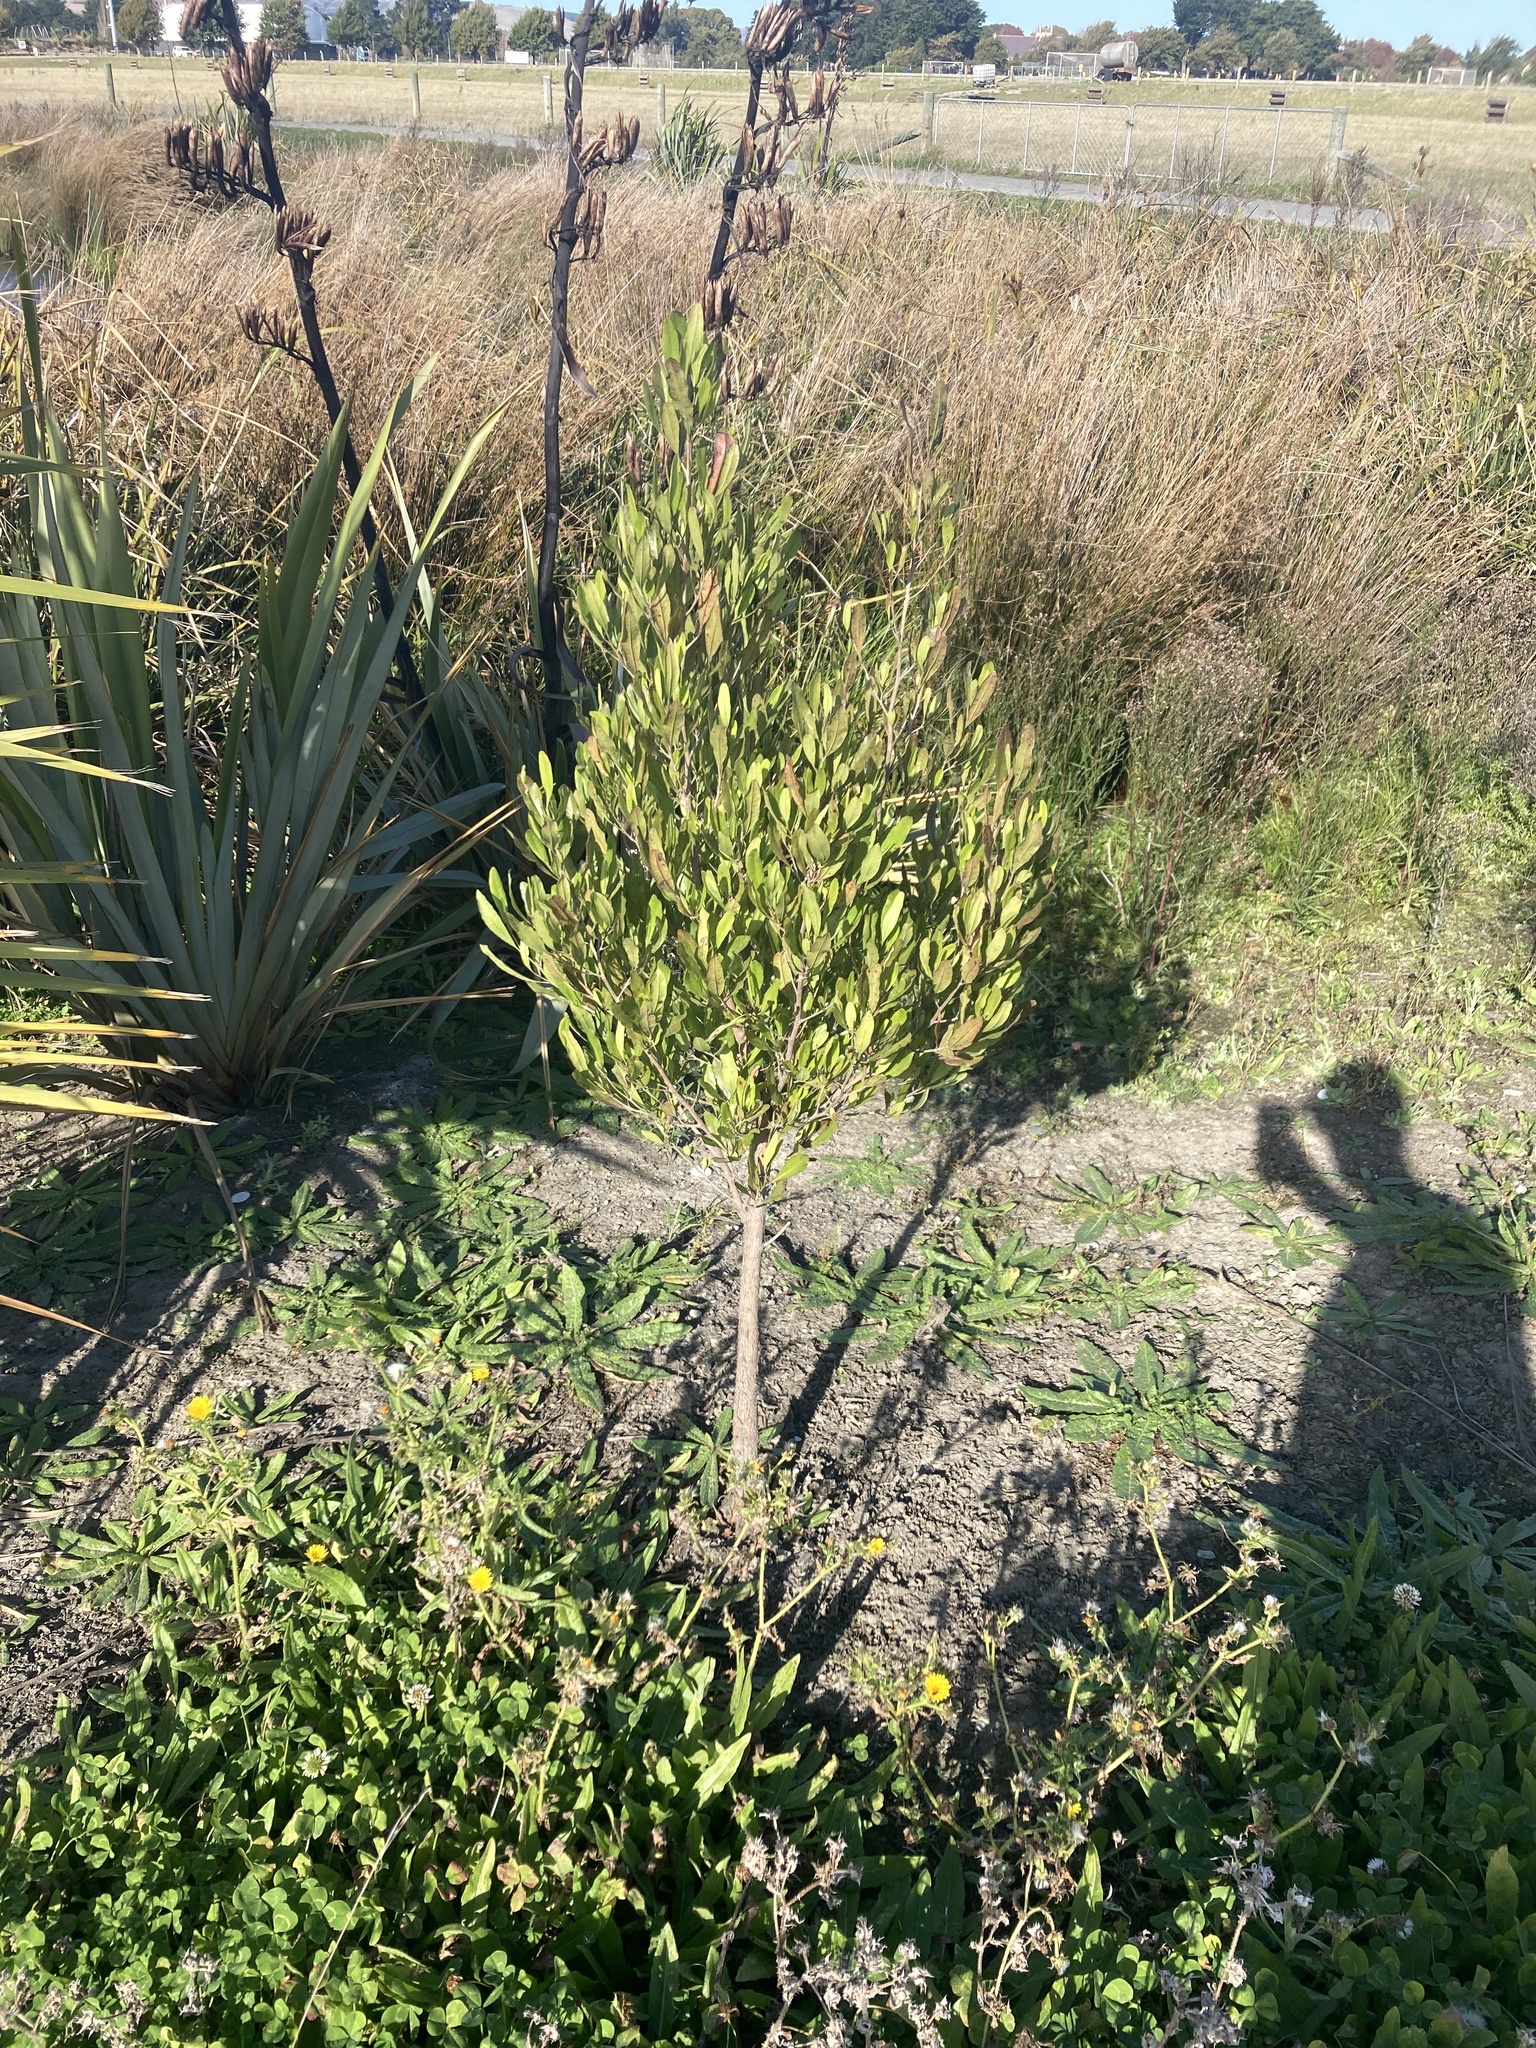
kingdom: Plantae
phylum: Tracheophyta
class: Magnoliopsida
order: Sapindales
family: Sapindaceae
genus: Dodonaea
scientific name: Dodonaea viscosa
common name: Hopbush
